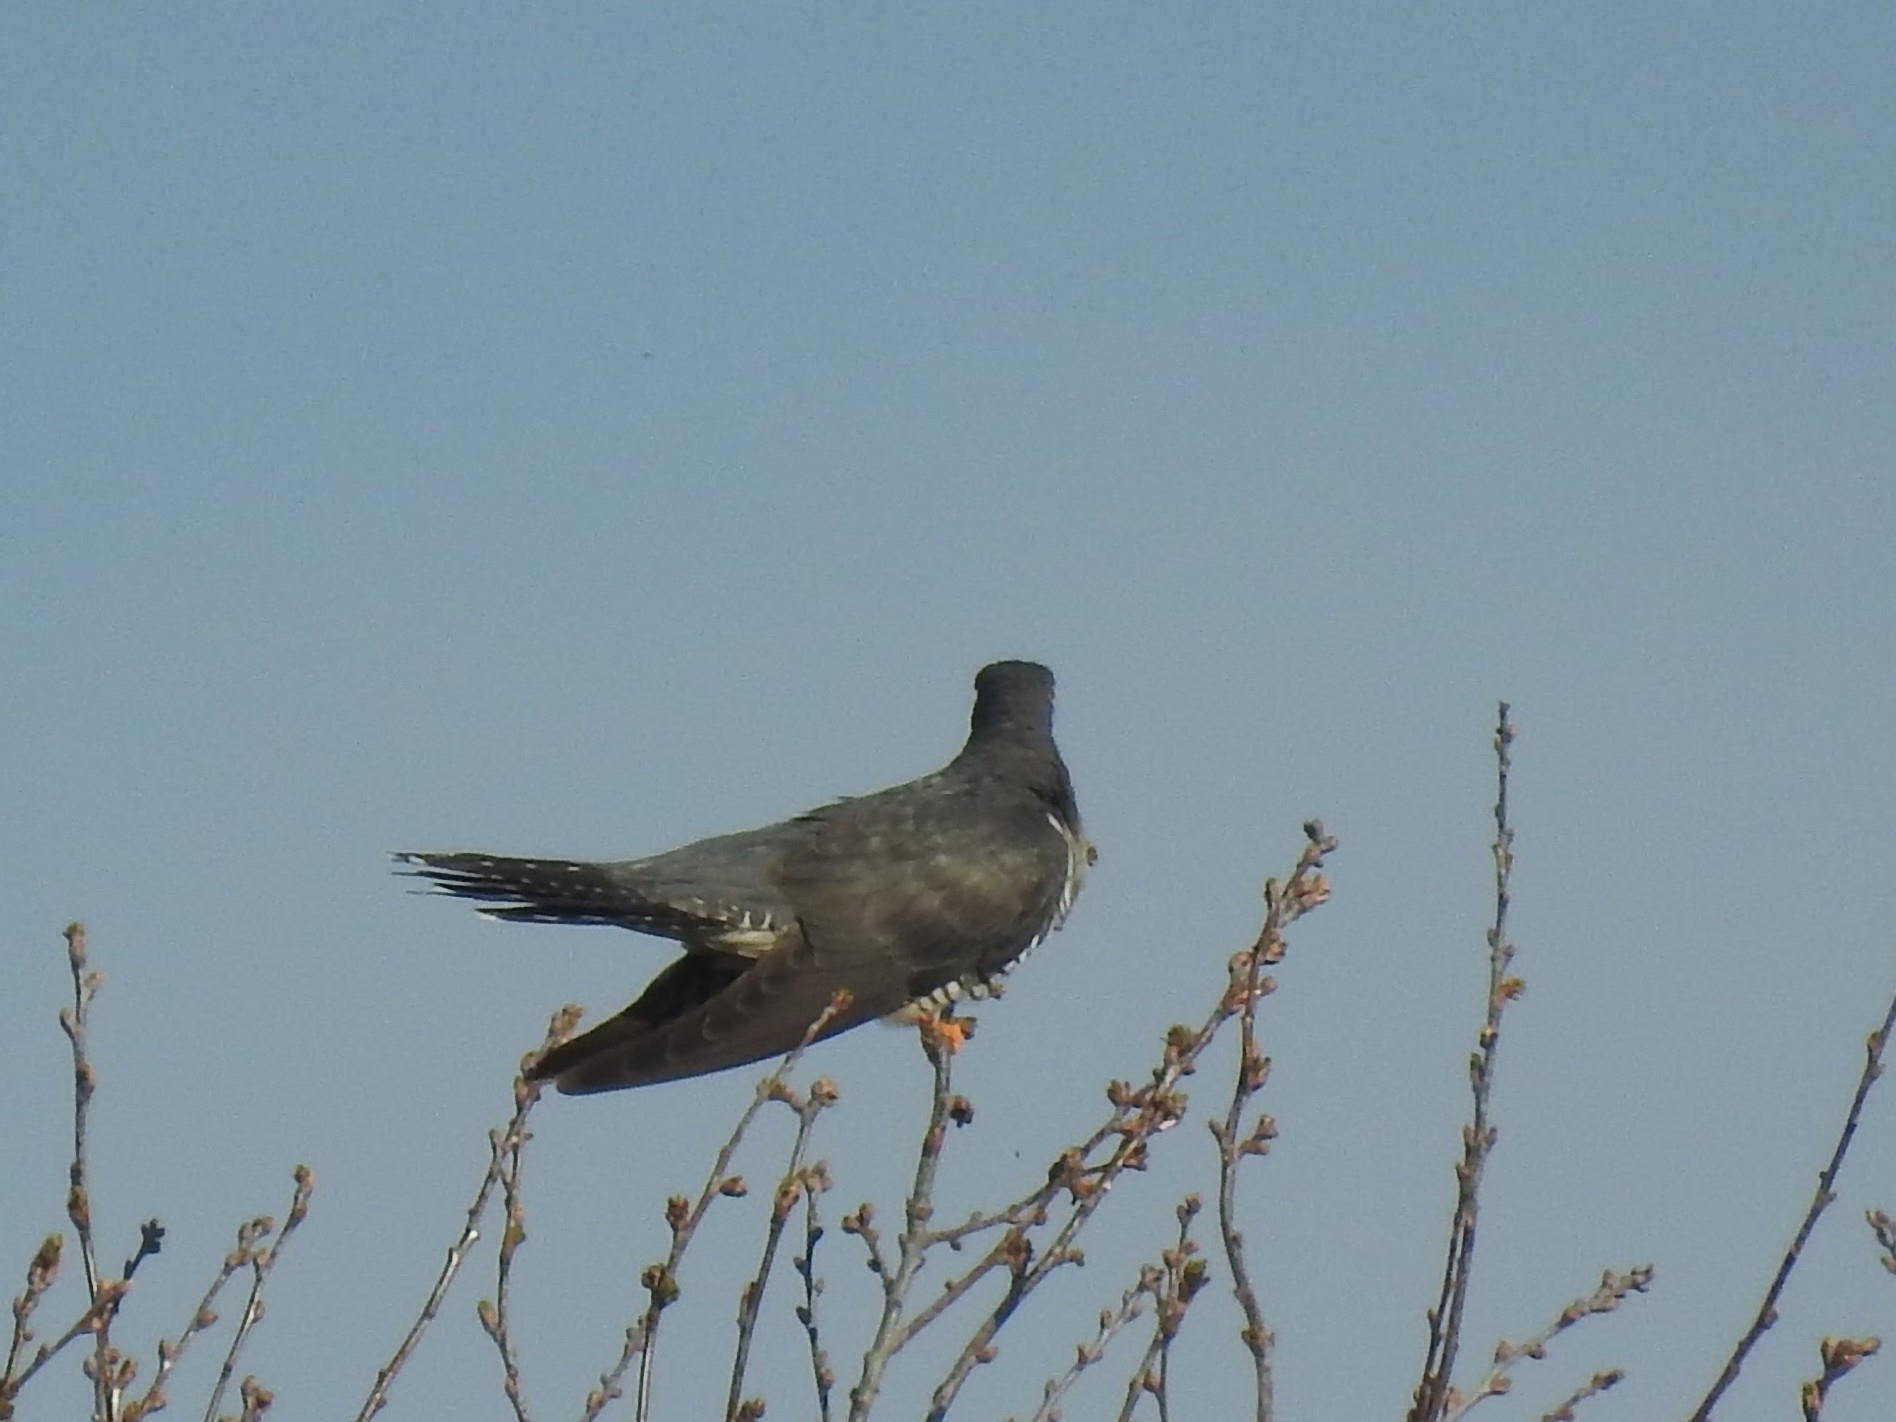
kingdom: Animalia
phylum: Chordata
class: Aves
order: Cuculiformes
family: Cuculidae
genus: Cuculus
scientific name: Cuculus canorus
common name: Common cuckoo
